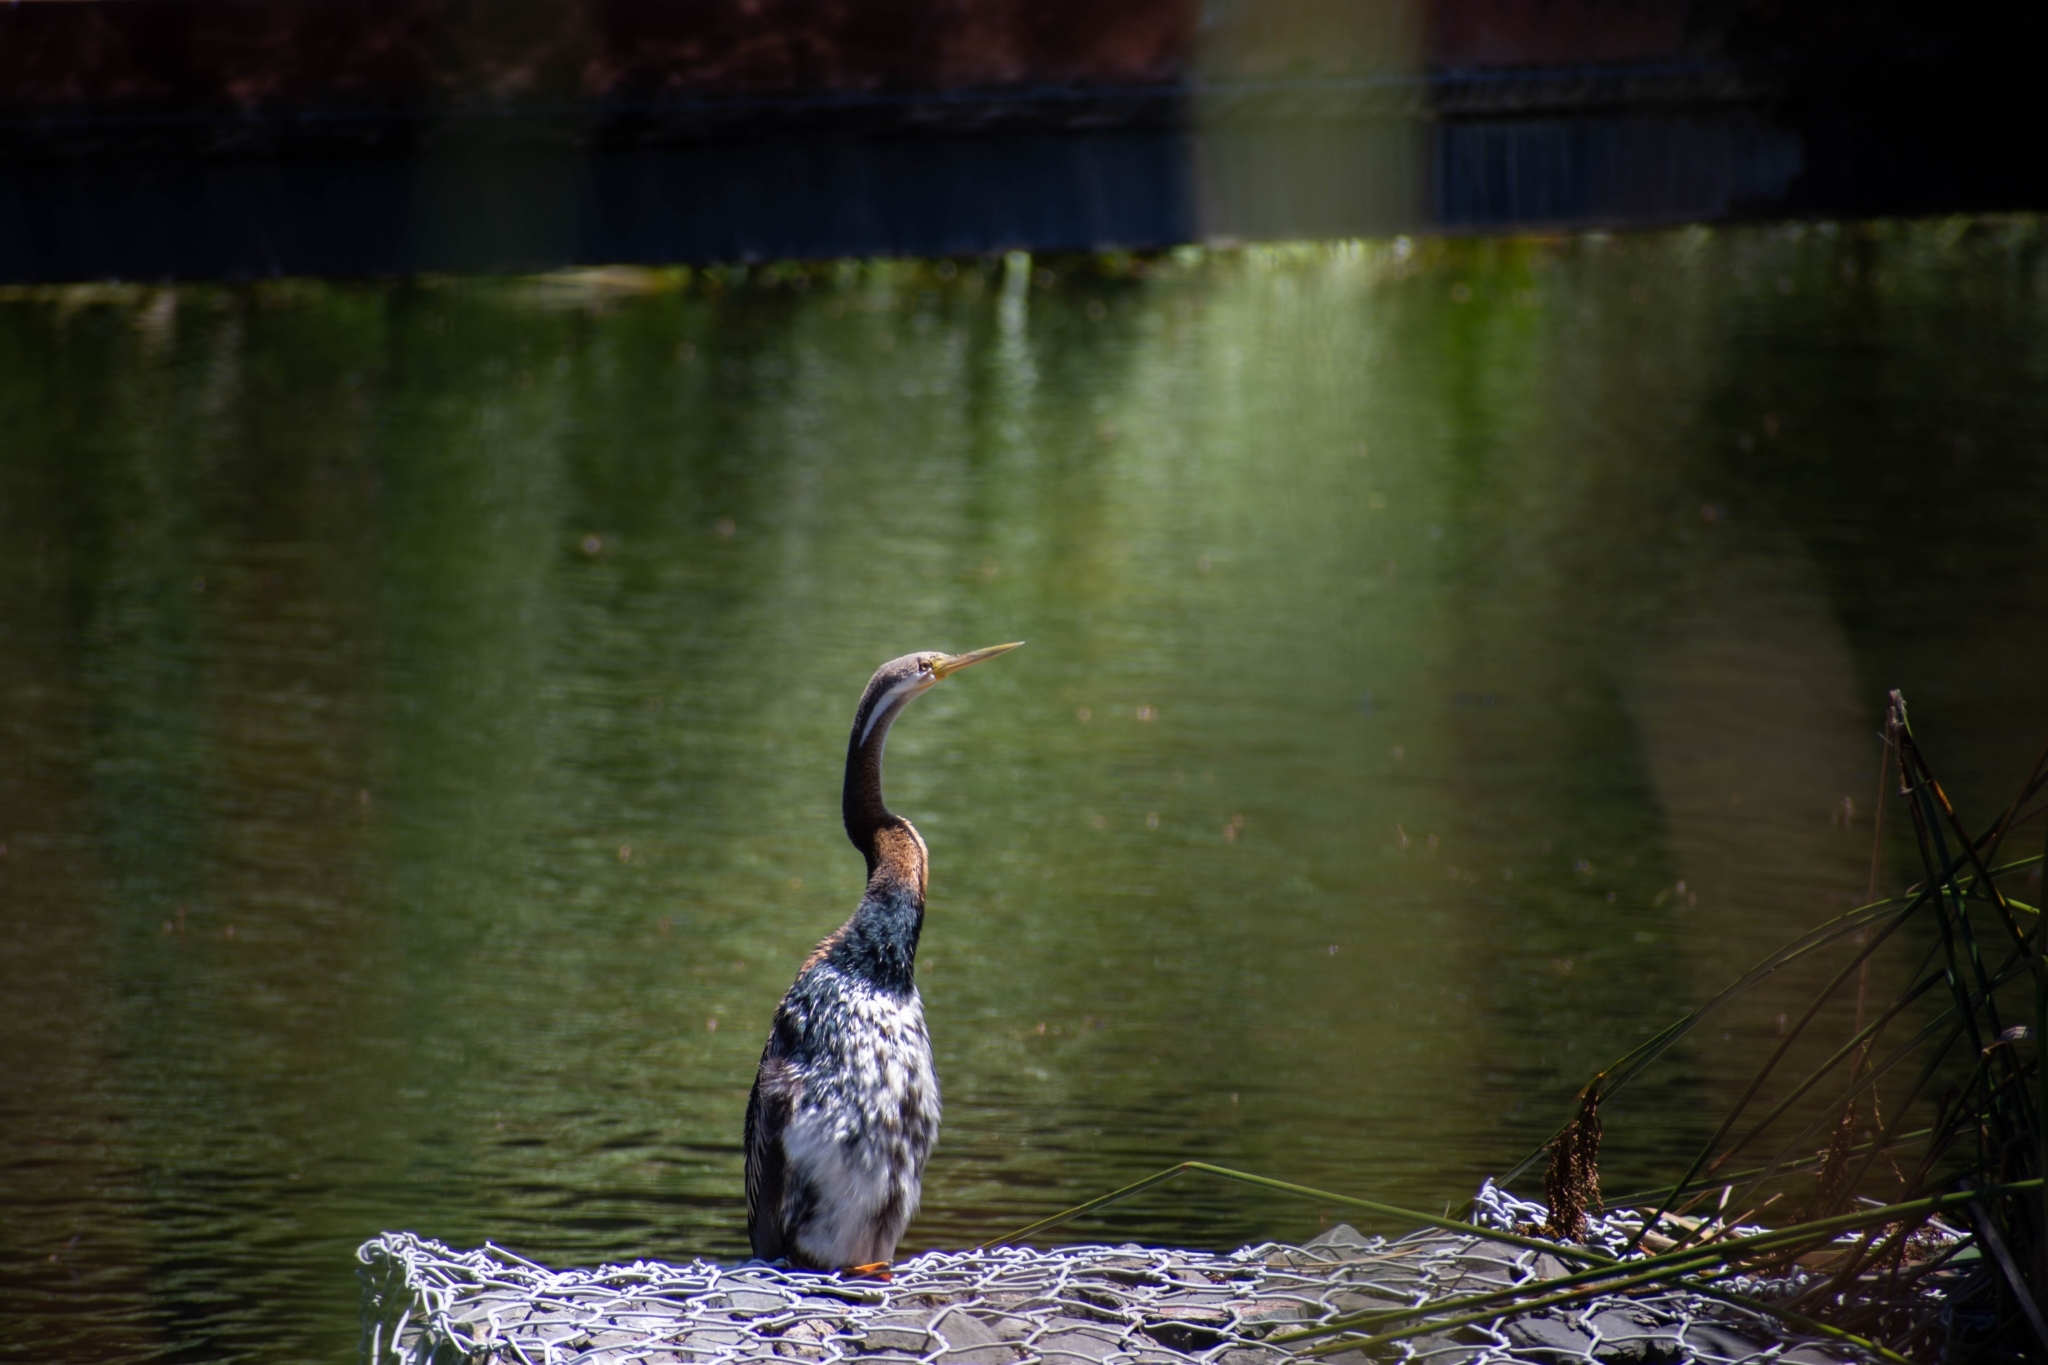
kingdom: Animalia
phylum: Chordata
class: Aves
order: Suliformes
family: Anhingidae
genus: Anhinga
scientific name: Anhinga novaehollandiae
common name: Australasian darter
